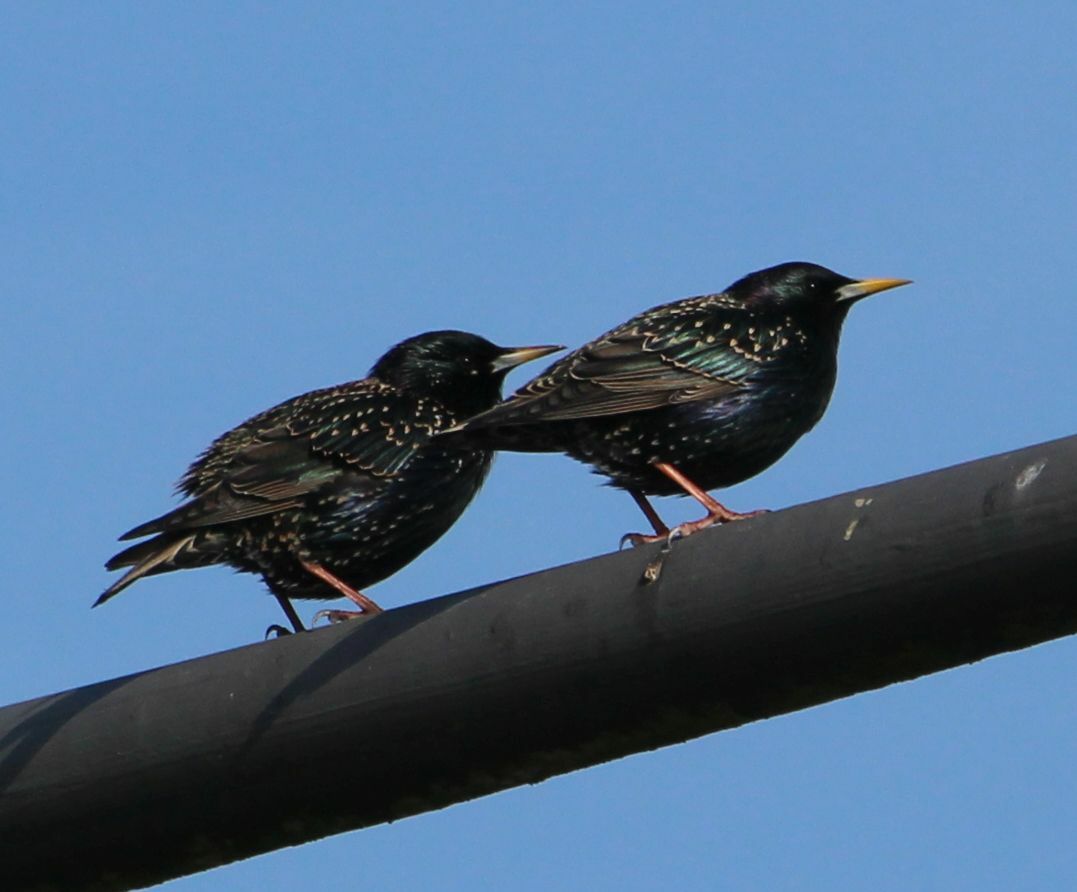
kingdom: Animalia
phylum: Chordata
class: Aves
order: Passeriformes
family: Sturnidae
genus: Sturnus
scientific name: Sturnus vulgaris
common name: Common starling
